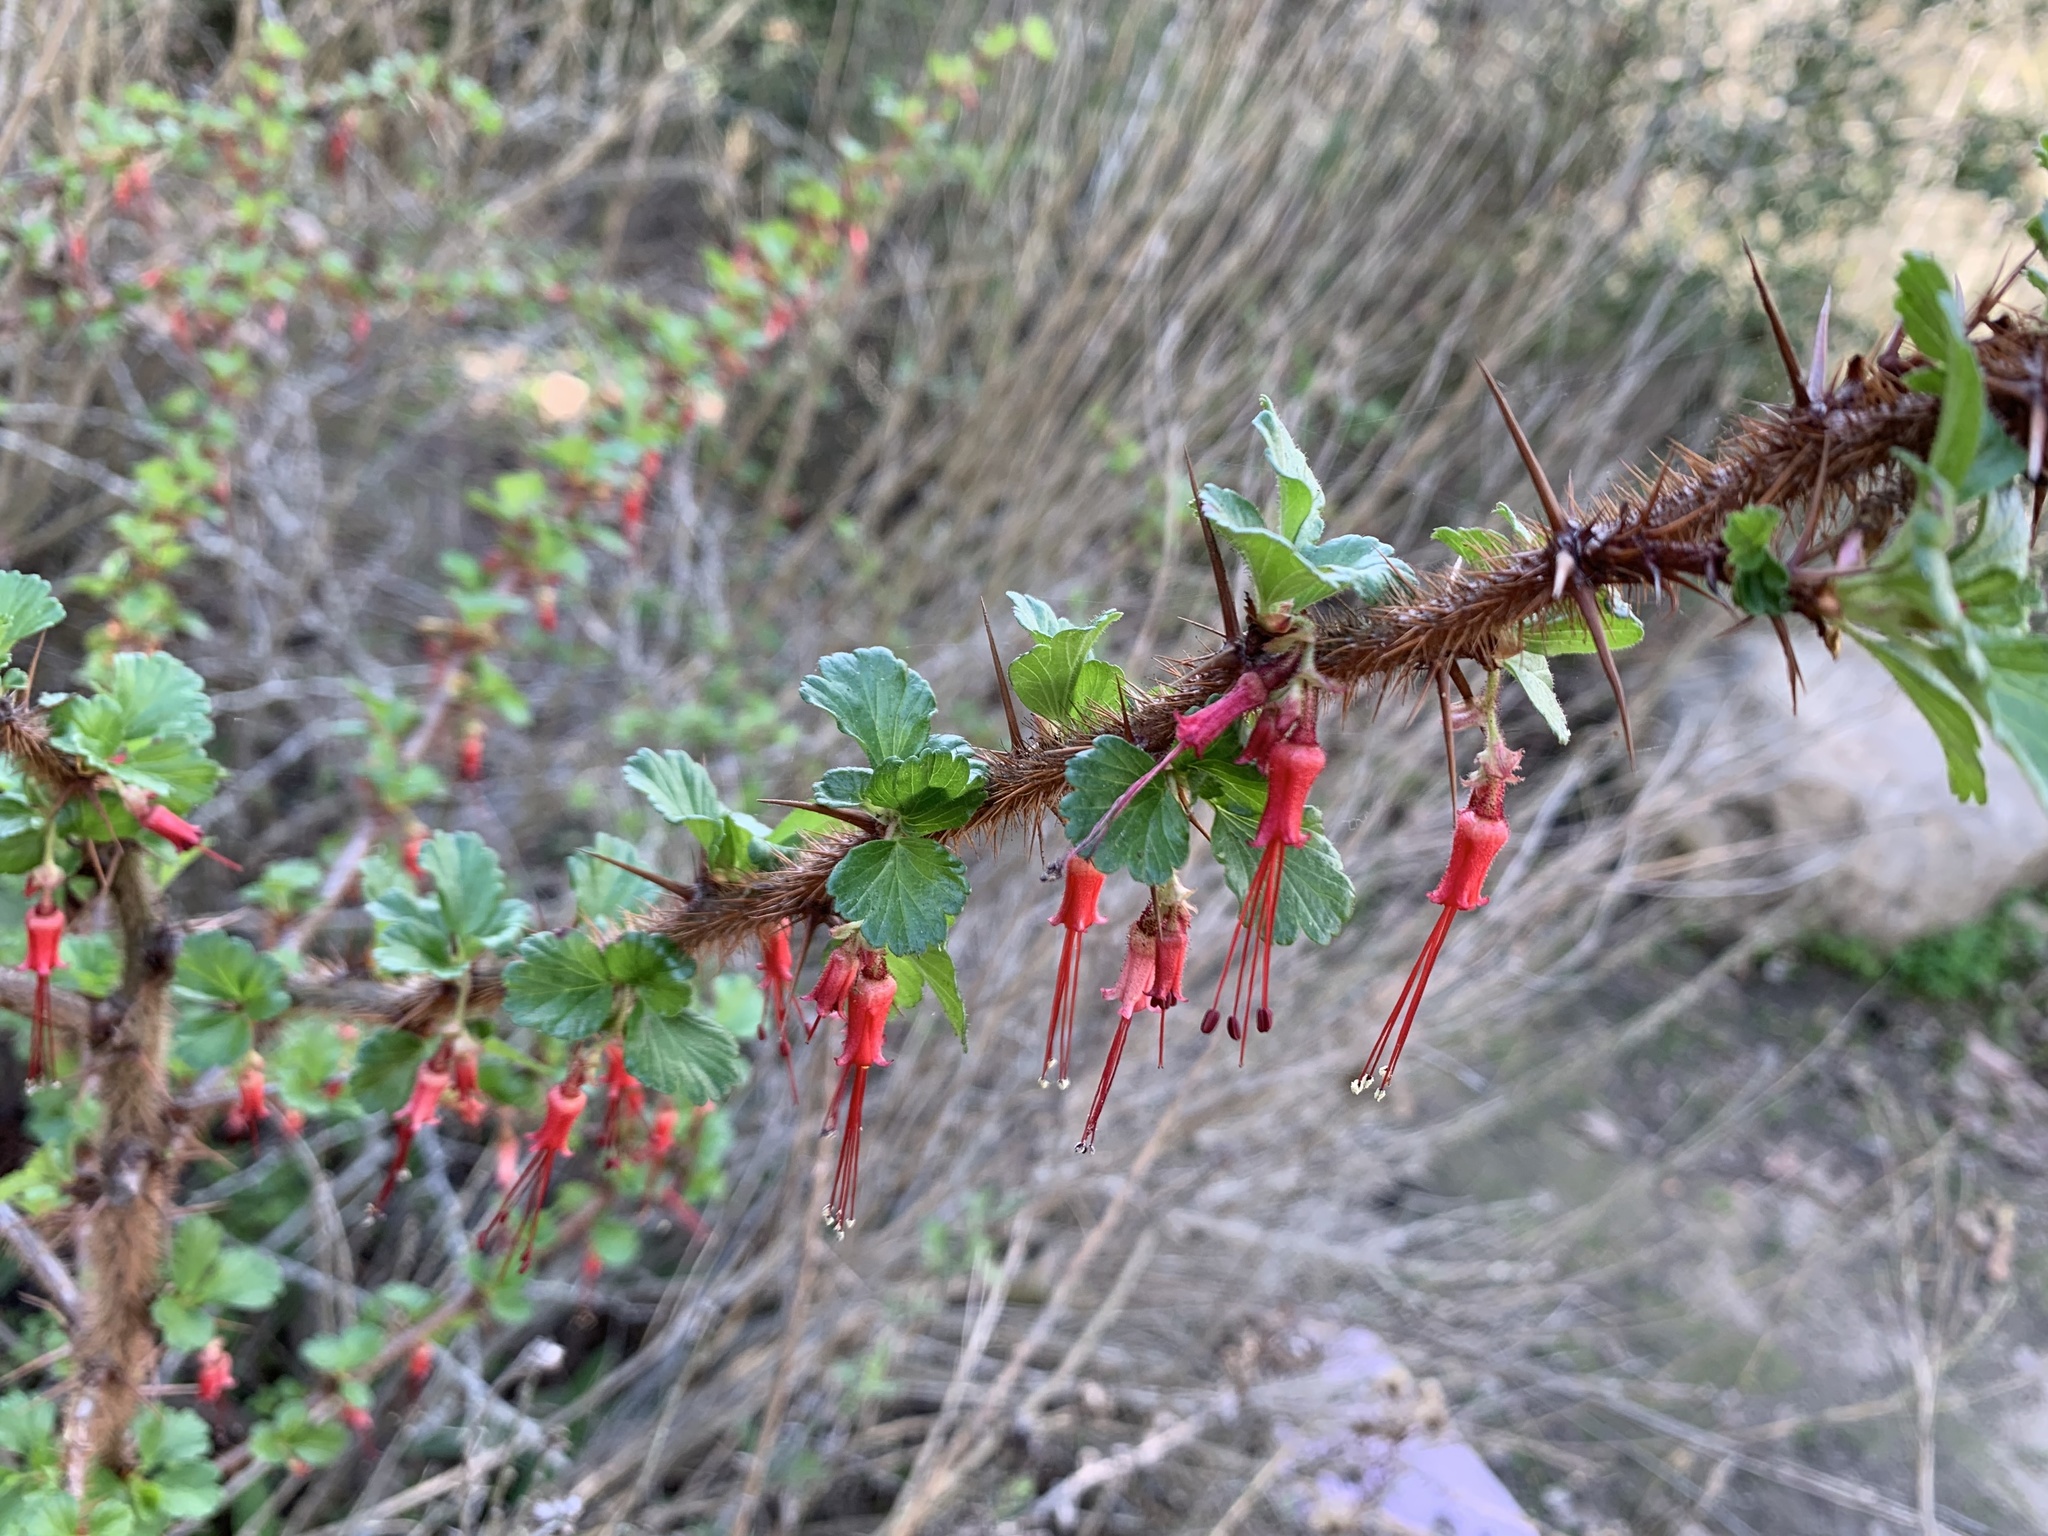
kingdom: Plantae
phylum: Tracheophyta
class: Magnoliopsida
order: Saxifragales
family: Grossulariaceae
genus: Ribes
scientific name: Ribes speciosum
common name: Fuchsia-flower gooseberry
